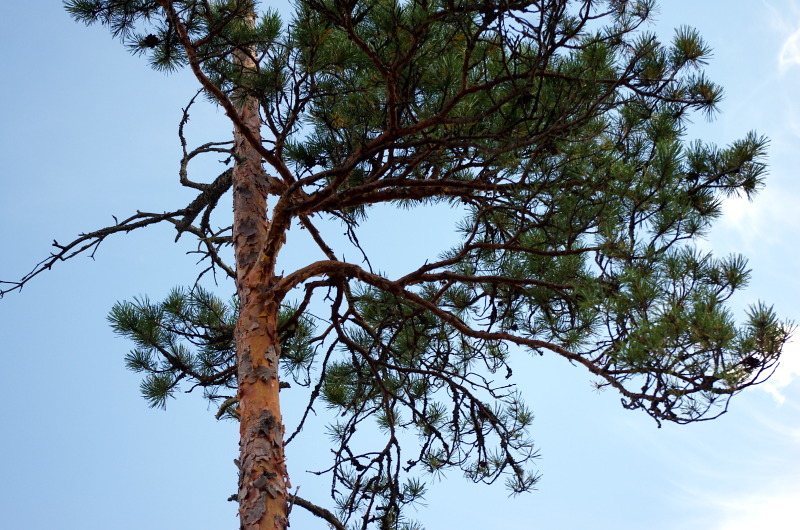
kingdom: Plantae
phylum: Tracheophyta
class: Pinopsida
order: Pinales
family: Pinaceae
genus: Pinus
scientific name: Pinus sylvestris
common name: Scots pine
